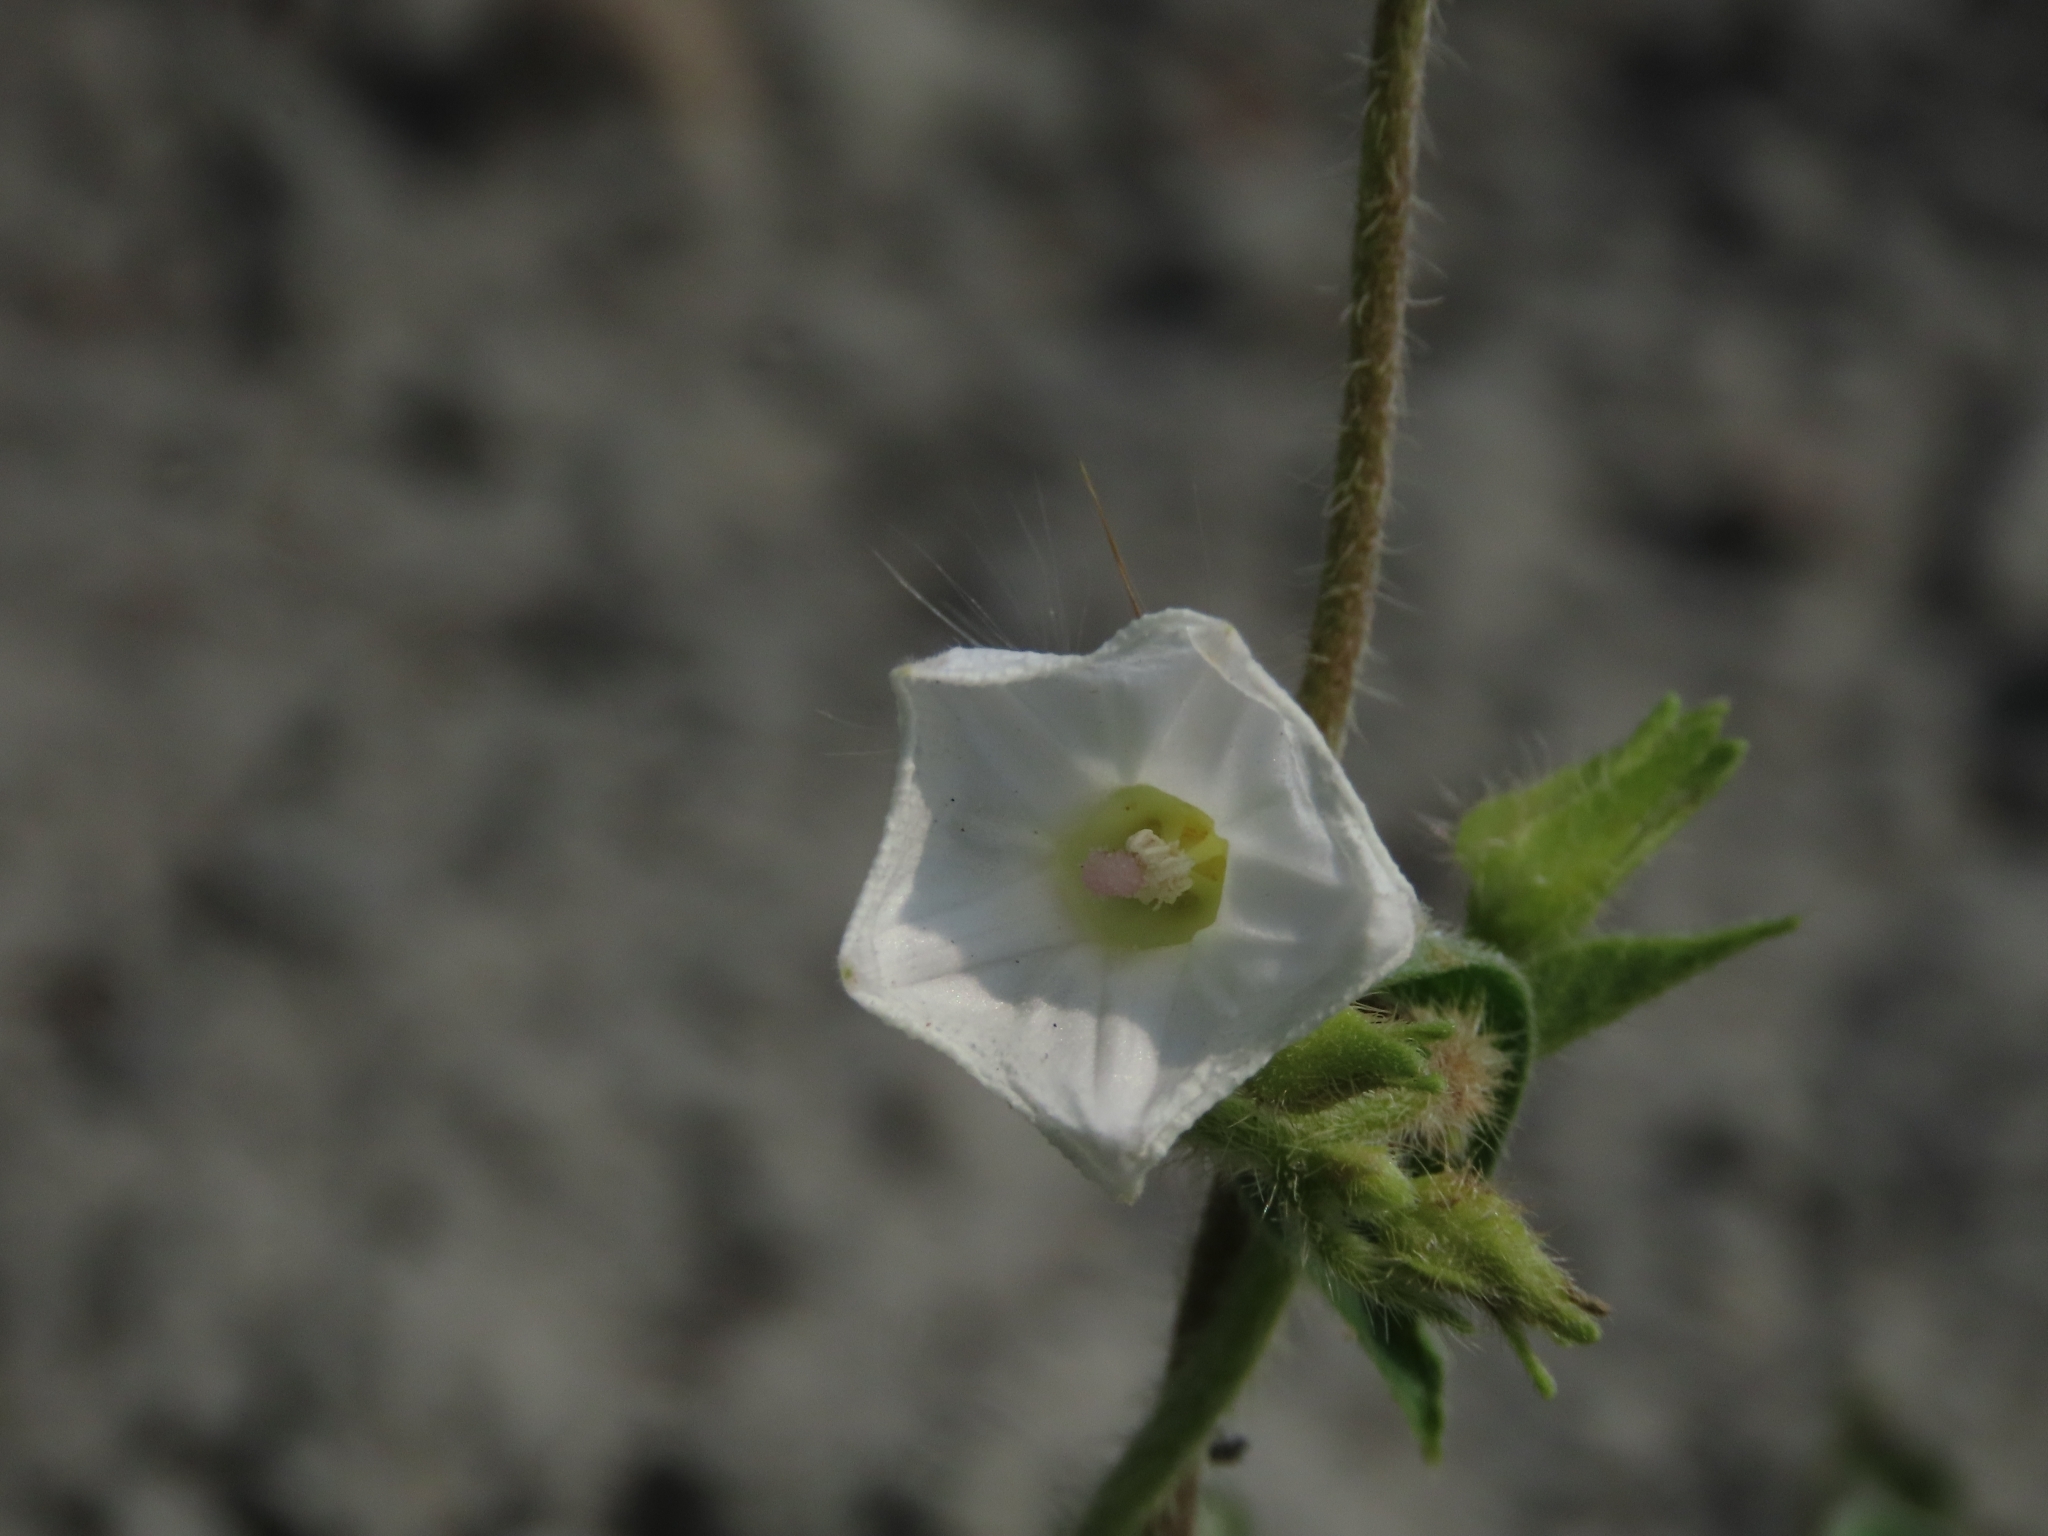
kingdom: Plantae
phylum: Tracheophyta
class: Magnoliopsida
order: Solanales
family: Convolvulaceae
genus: Ipomoea
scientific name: Ipomoea biflora
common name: Bellvine
